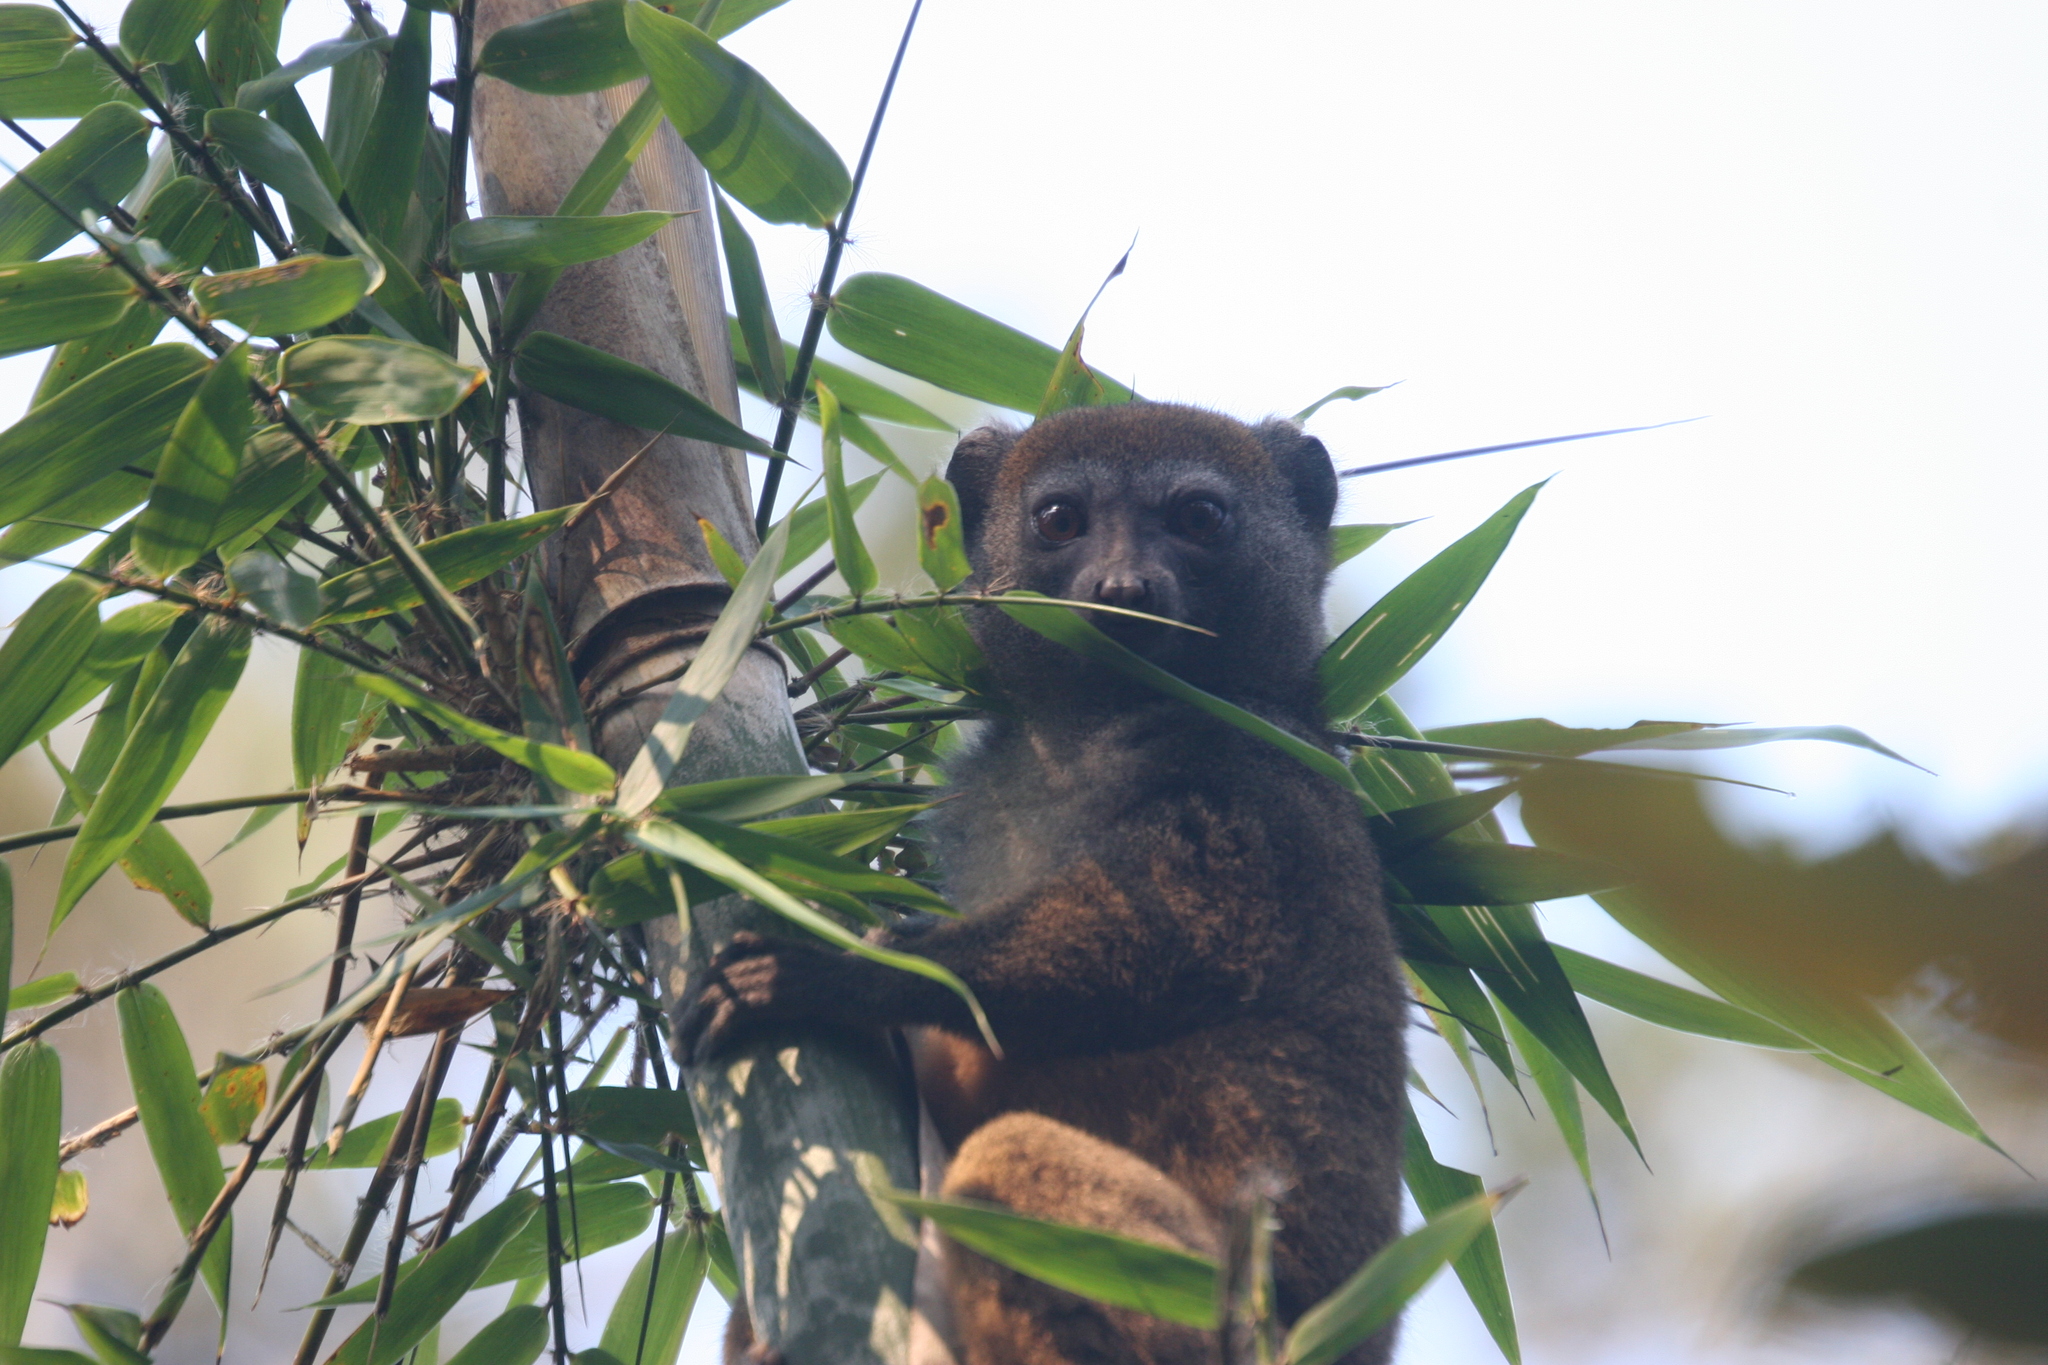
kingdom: Animalia
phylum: Chordata
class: Mammalia
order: Primates
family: Lemuridae
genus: Hapalemur
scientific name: Hapalemur griseus
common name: Gray bamboo lemur
